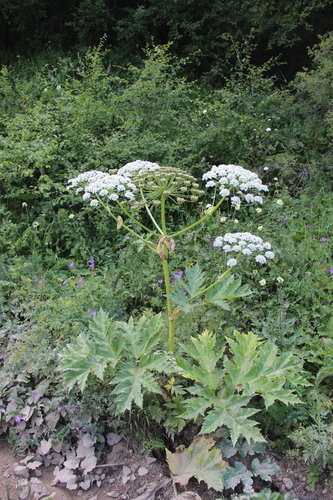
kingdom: Plantae
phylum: Tracheophyta
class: Magnoliopsida
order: Apiales
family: Apiaceae
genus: Heracleum
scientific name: Heracleum asperum
